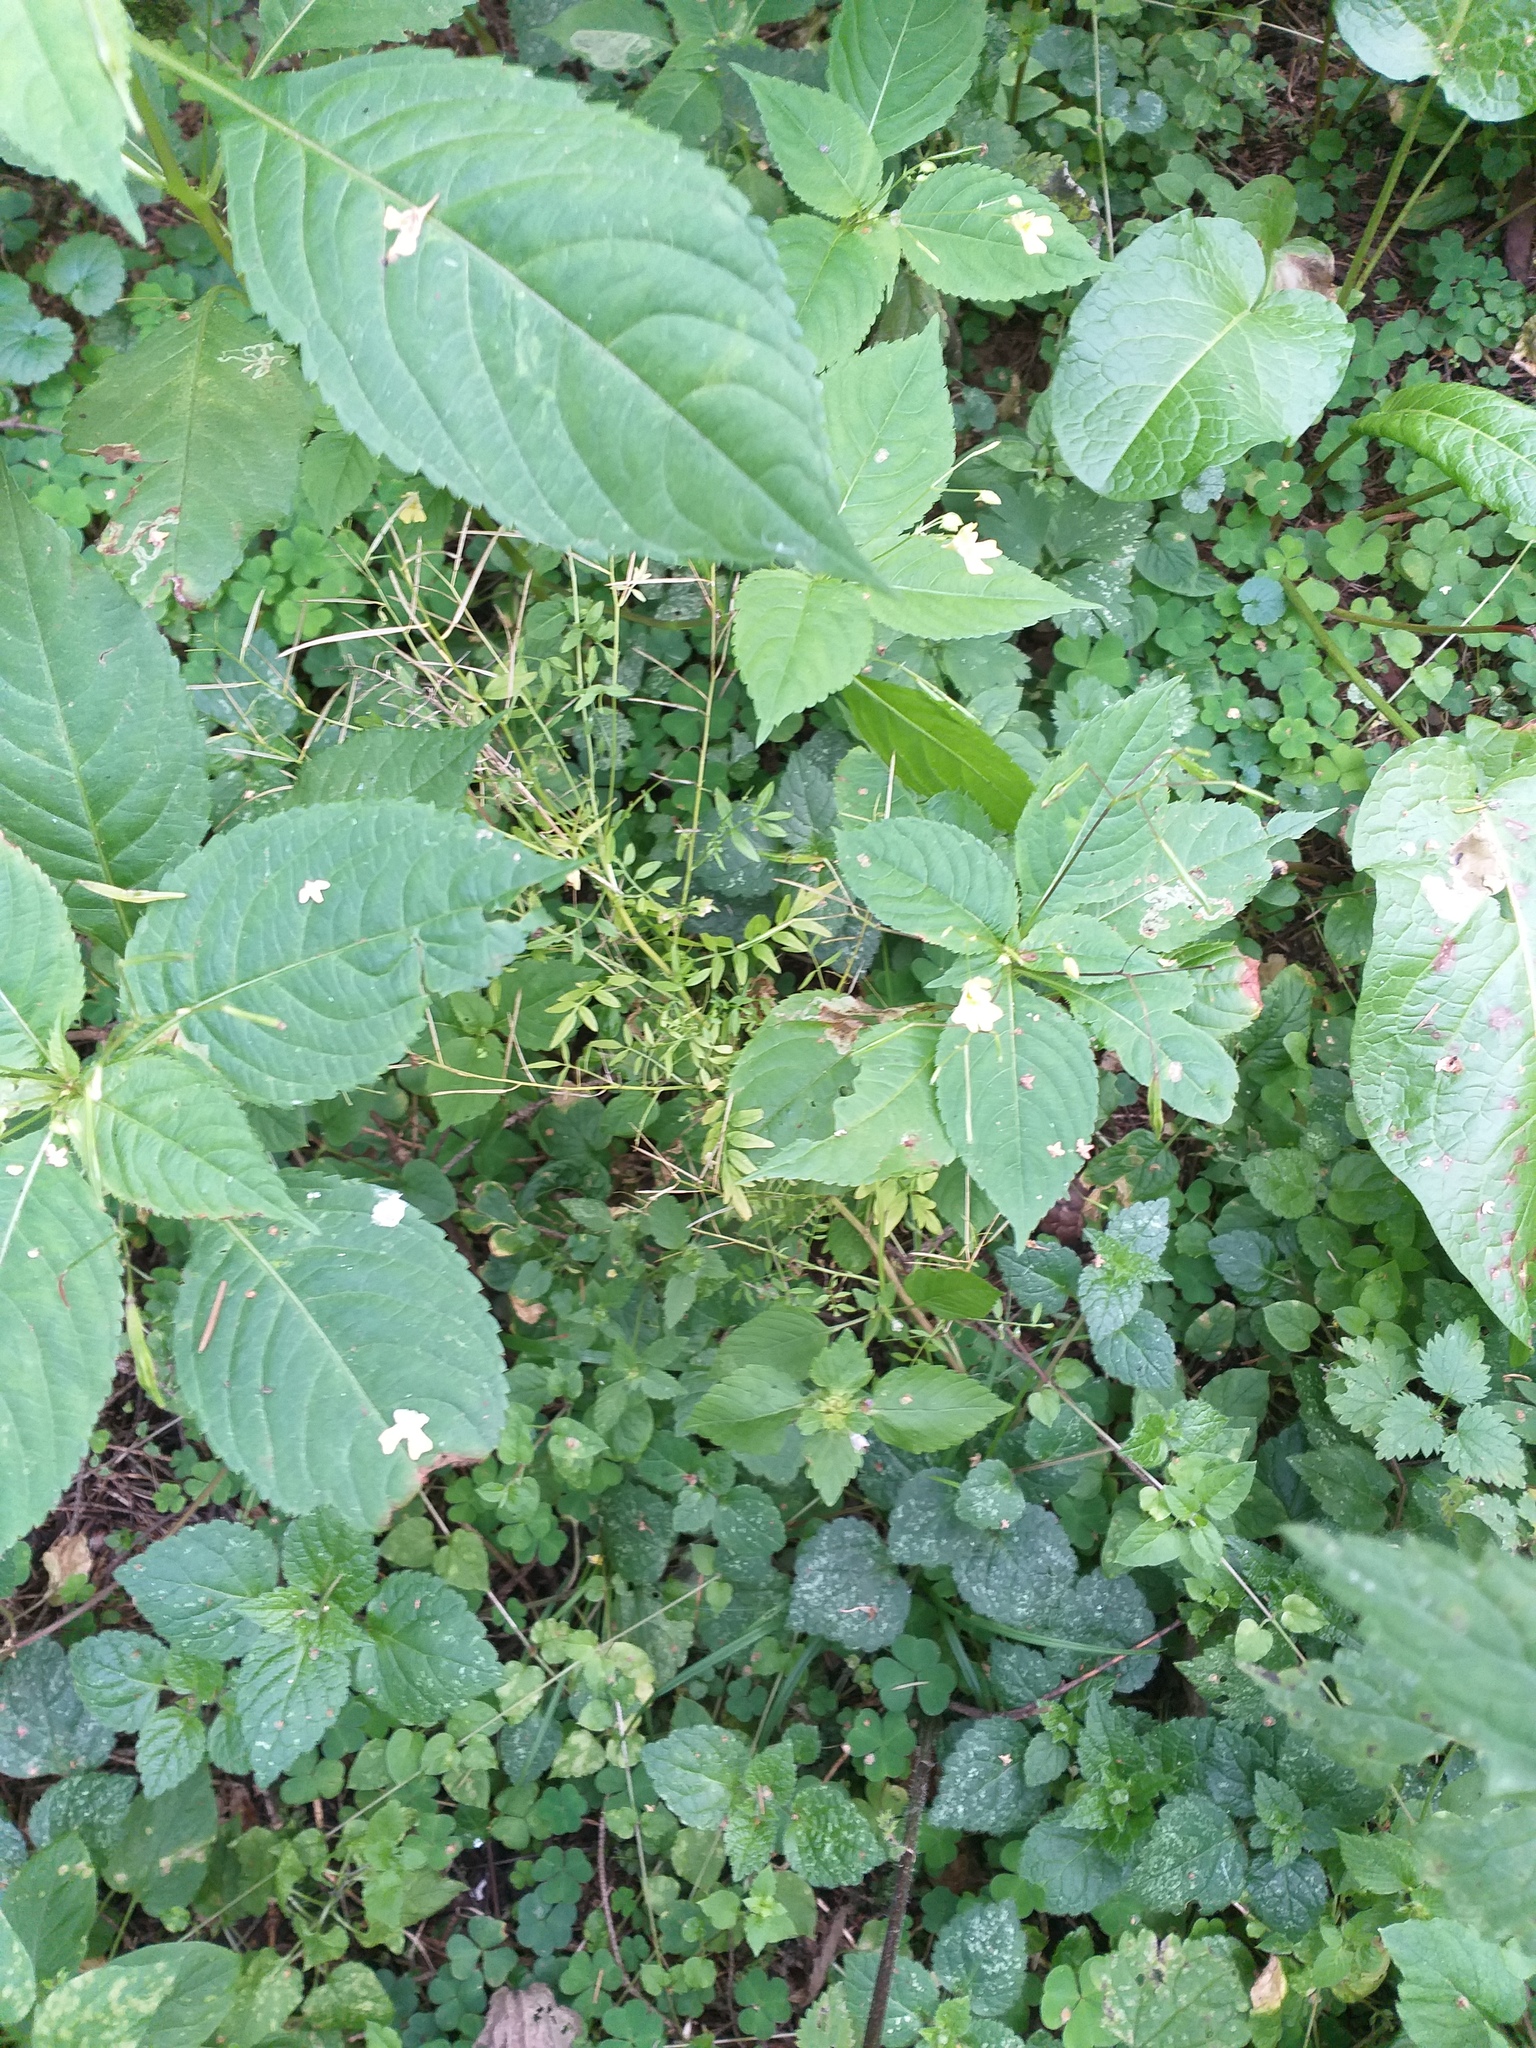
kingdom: Plantae
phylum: Tracheophyta
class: Magnoliopsida
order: Brassicales
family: Brassicaceae
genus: Cardamine
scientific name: Cardamine impatiens
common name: Narrow-leaved bitter-cress
